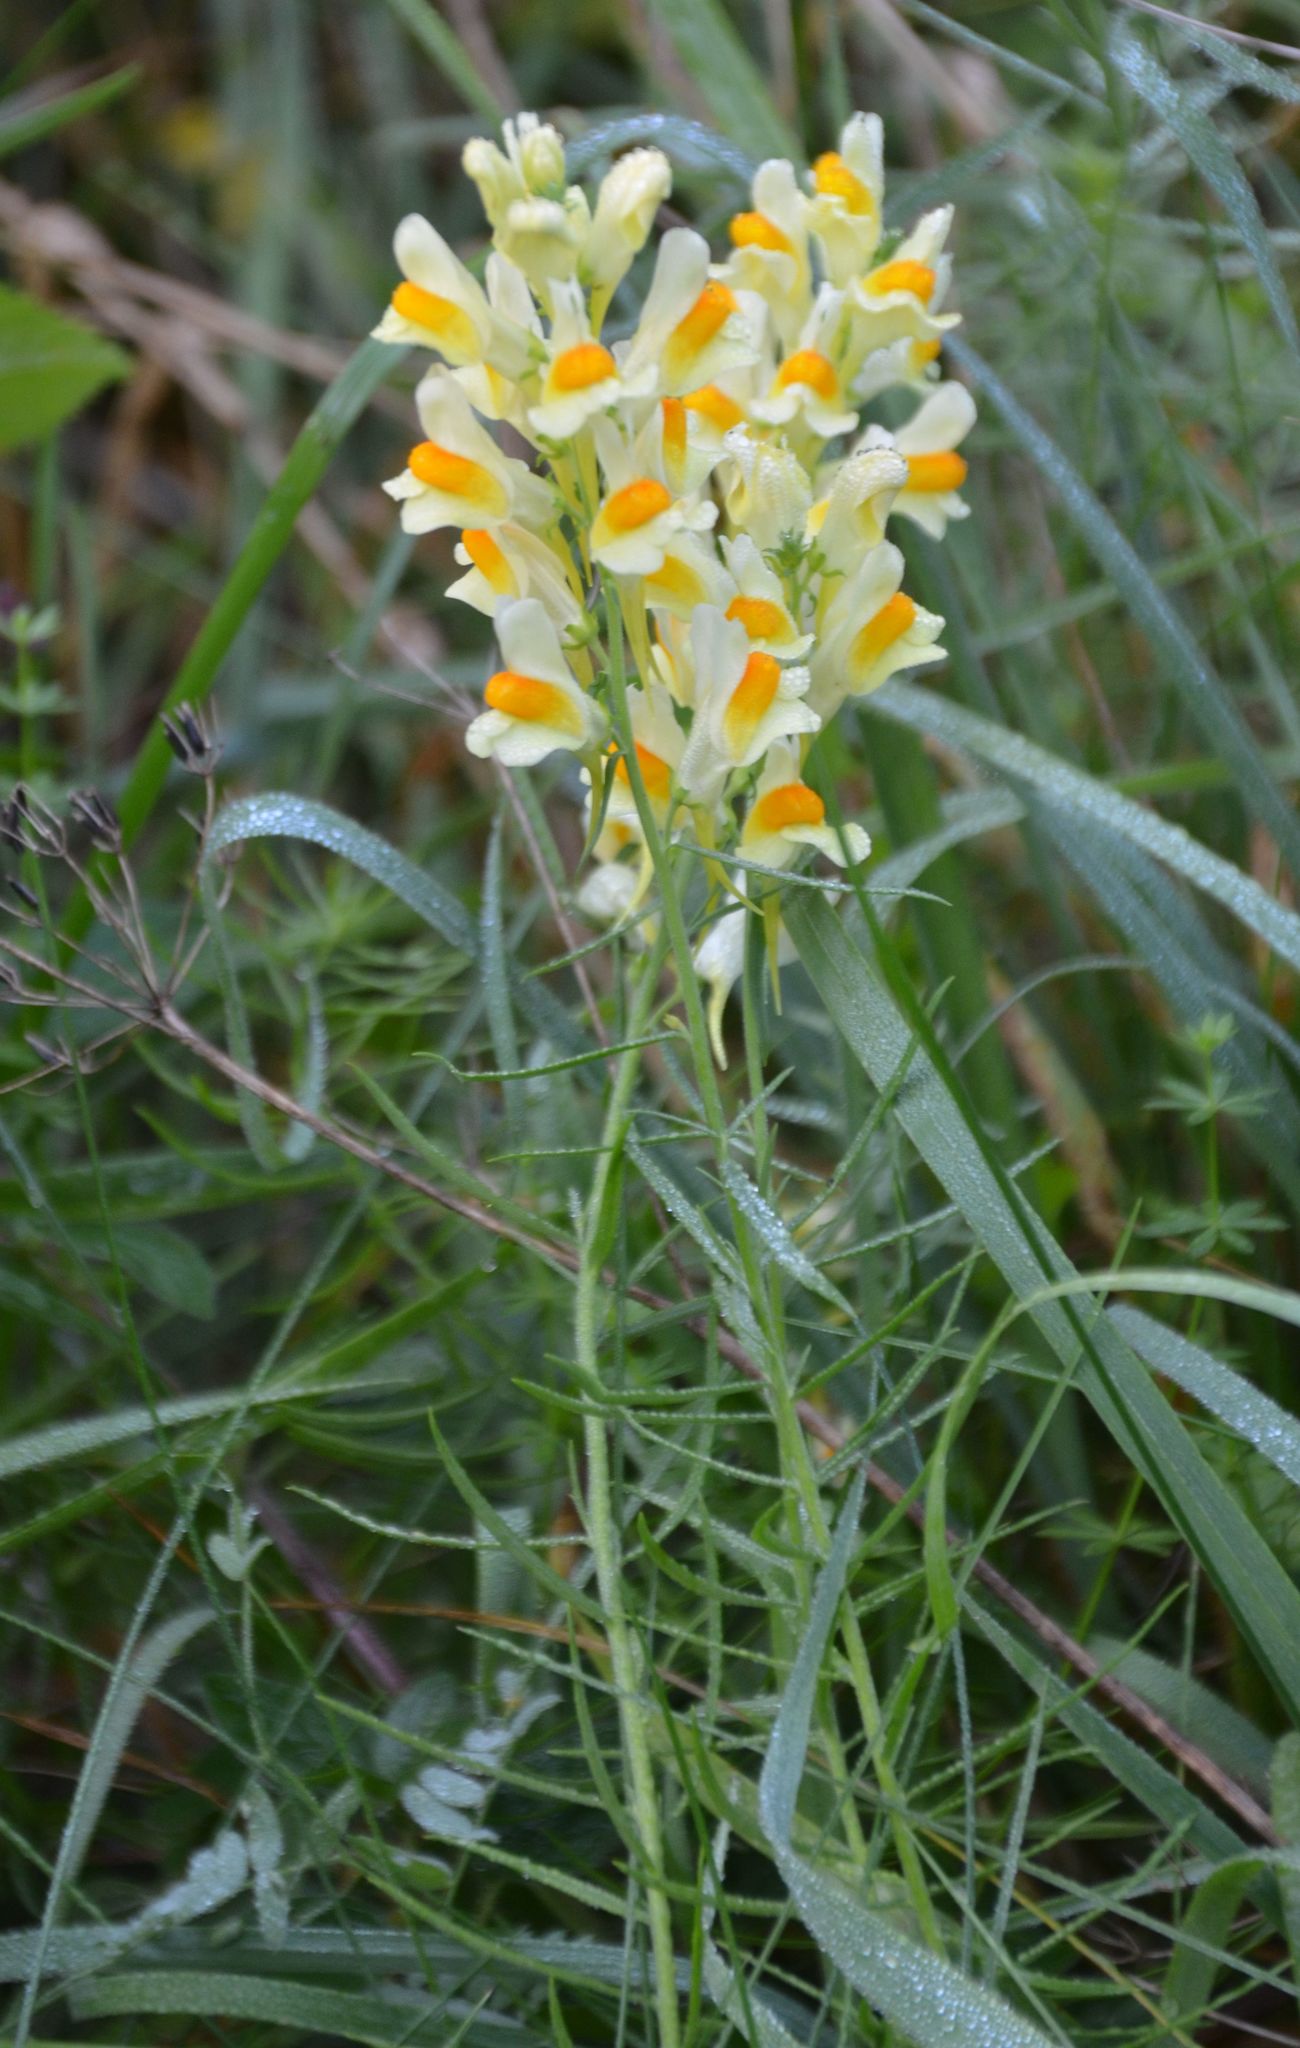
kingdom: Plantae
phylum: Tracheophyta
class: Magnoliopsida
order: Lamiales
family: Plantaginaceae
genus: Linaria
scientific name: Linaria vulgaris
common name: Butter and eggs
